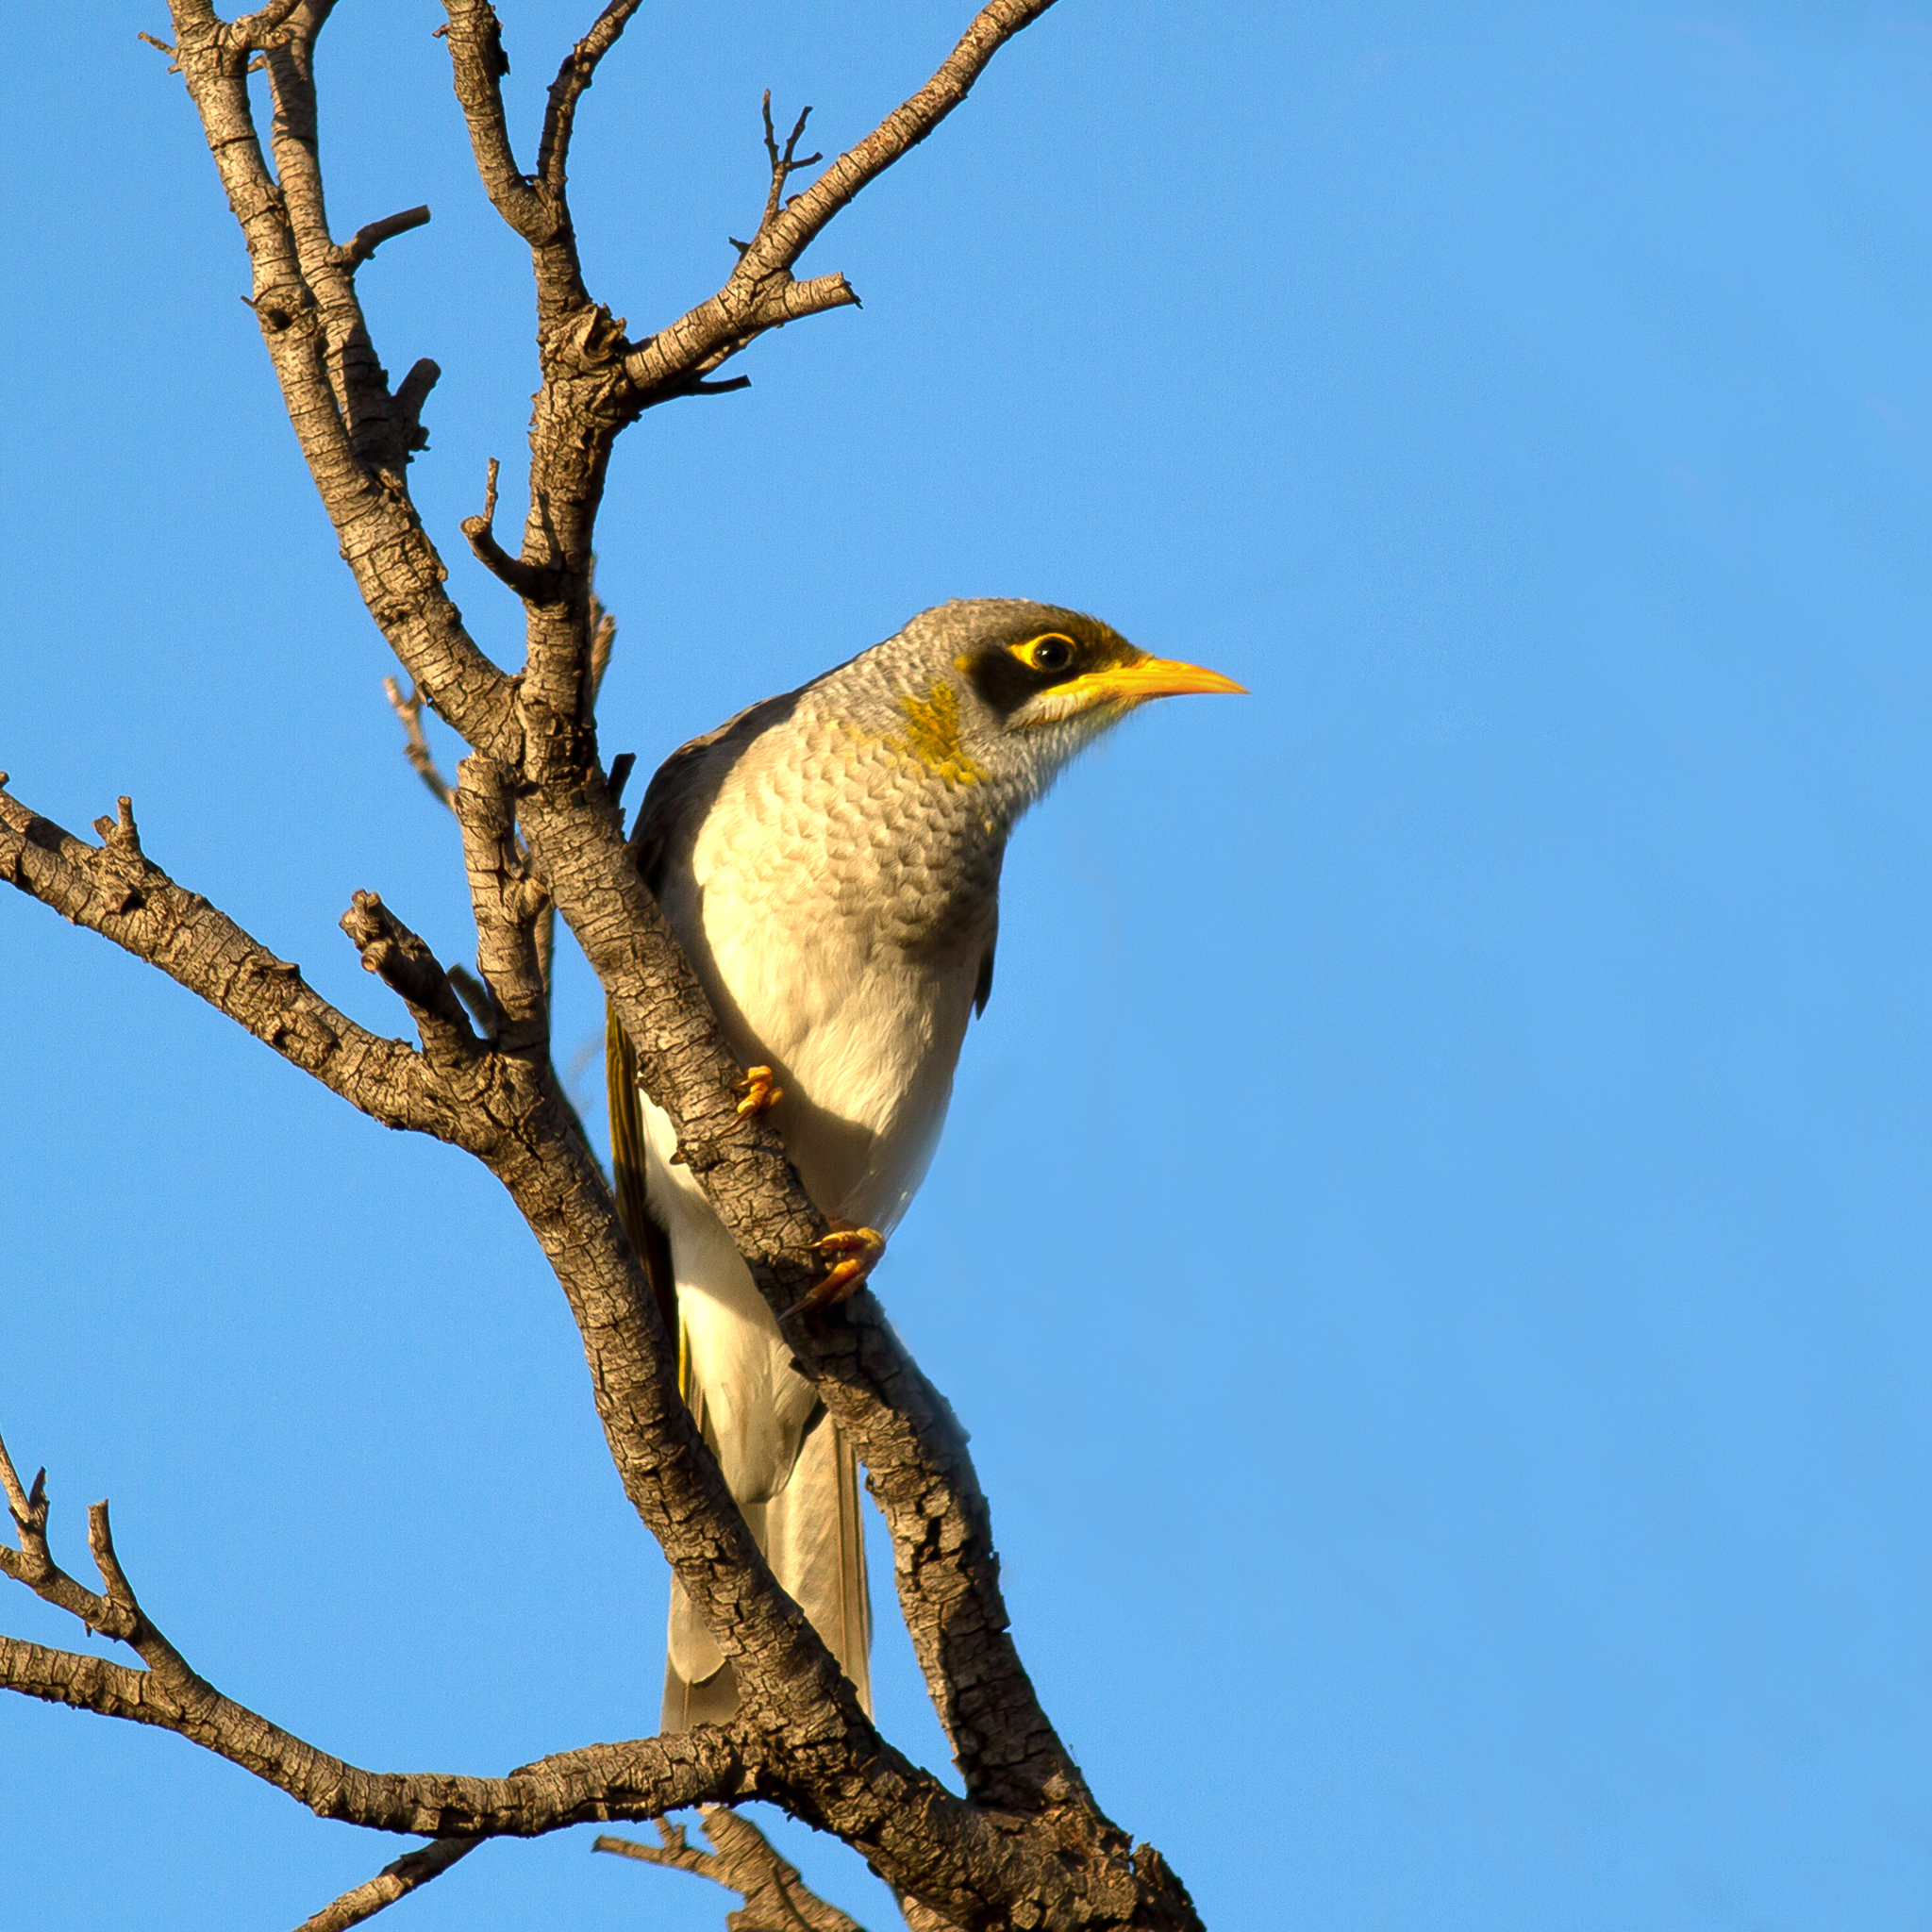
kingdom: Animalia
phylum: Chordata
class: Aves
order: Passeriformes
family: Meliphagidae
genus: Manorina
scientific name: Manorina flavigula
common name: Yellow-throated miner
